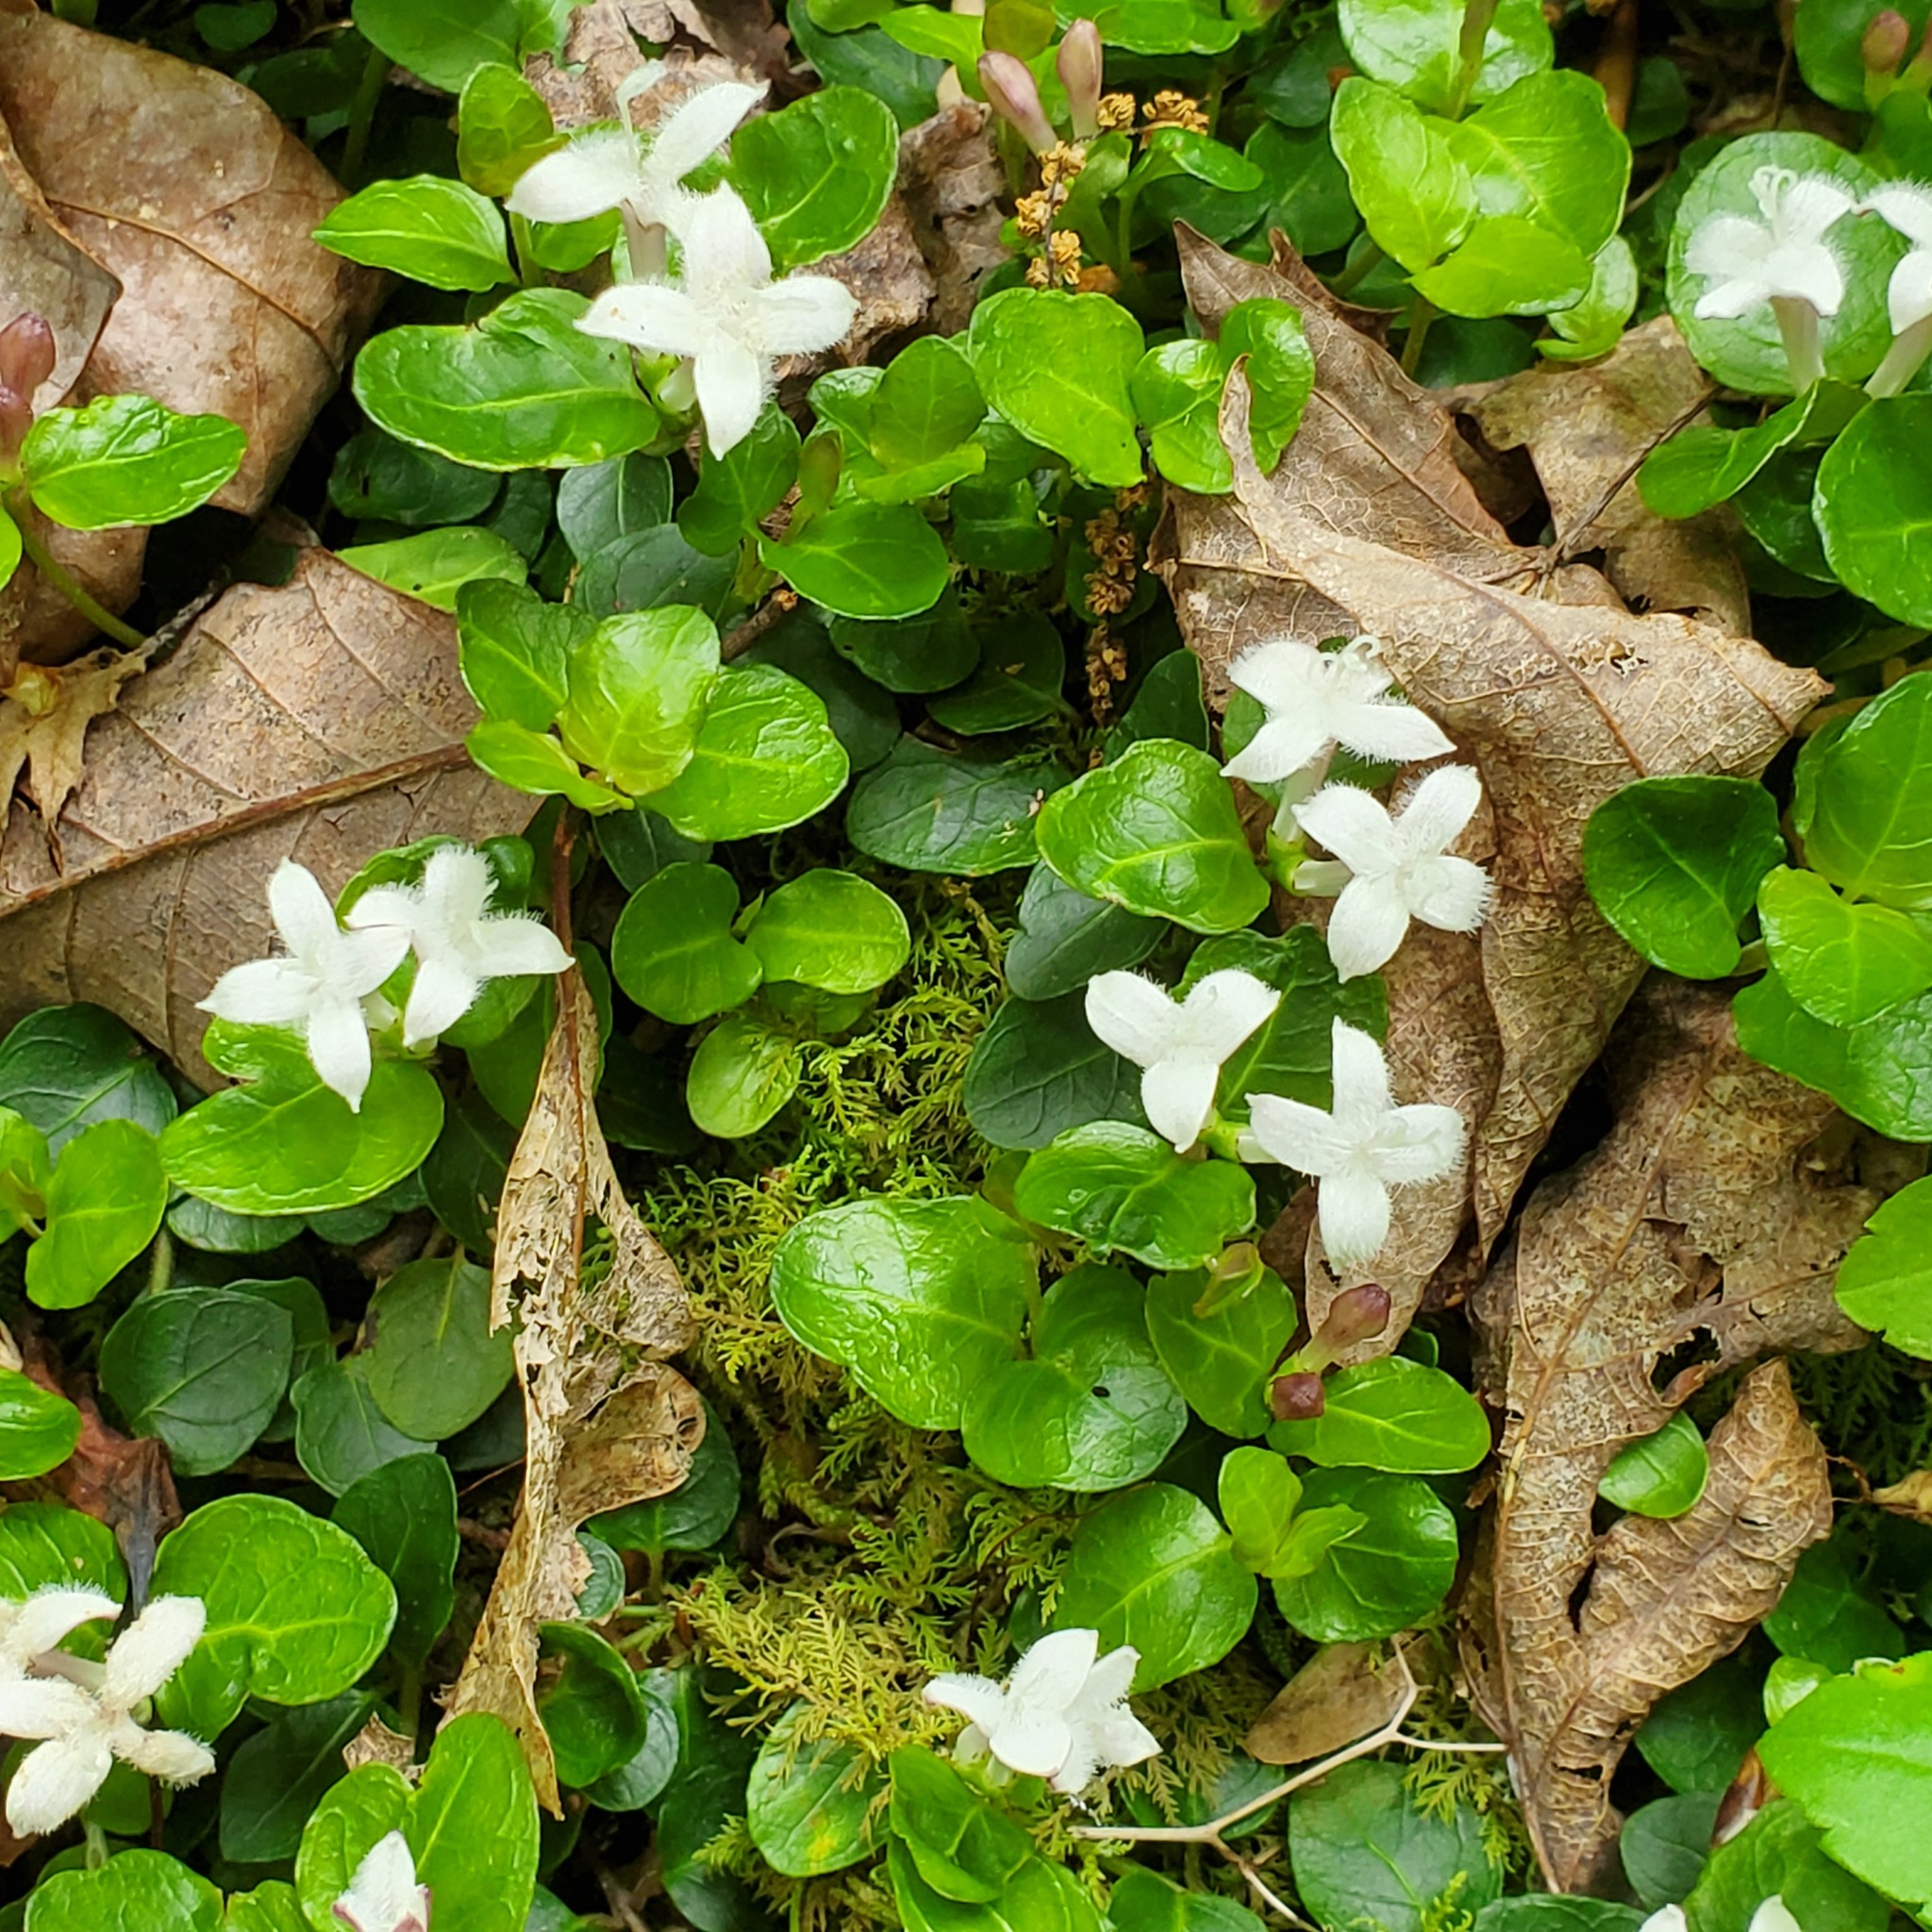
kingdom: Plantae
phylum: Tracheophyta
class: Magnoliopsida
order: Gentianales
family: Rubiaceae
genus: Mitchella
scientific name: Mitchella repens
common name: Partridge-berry
